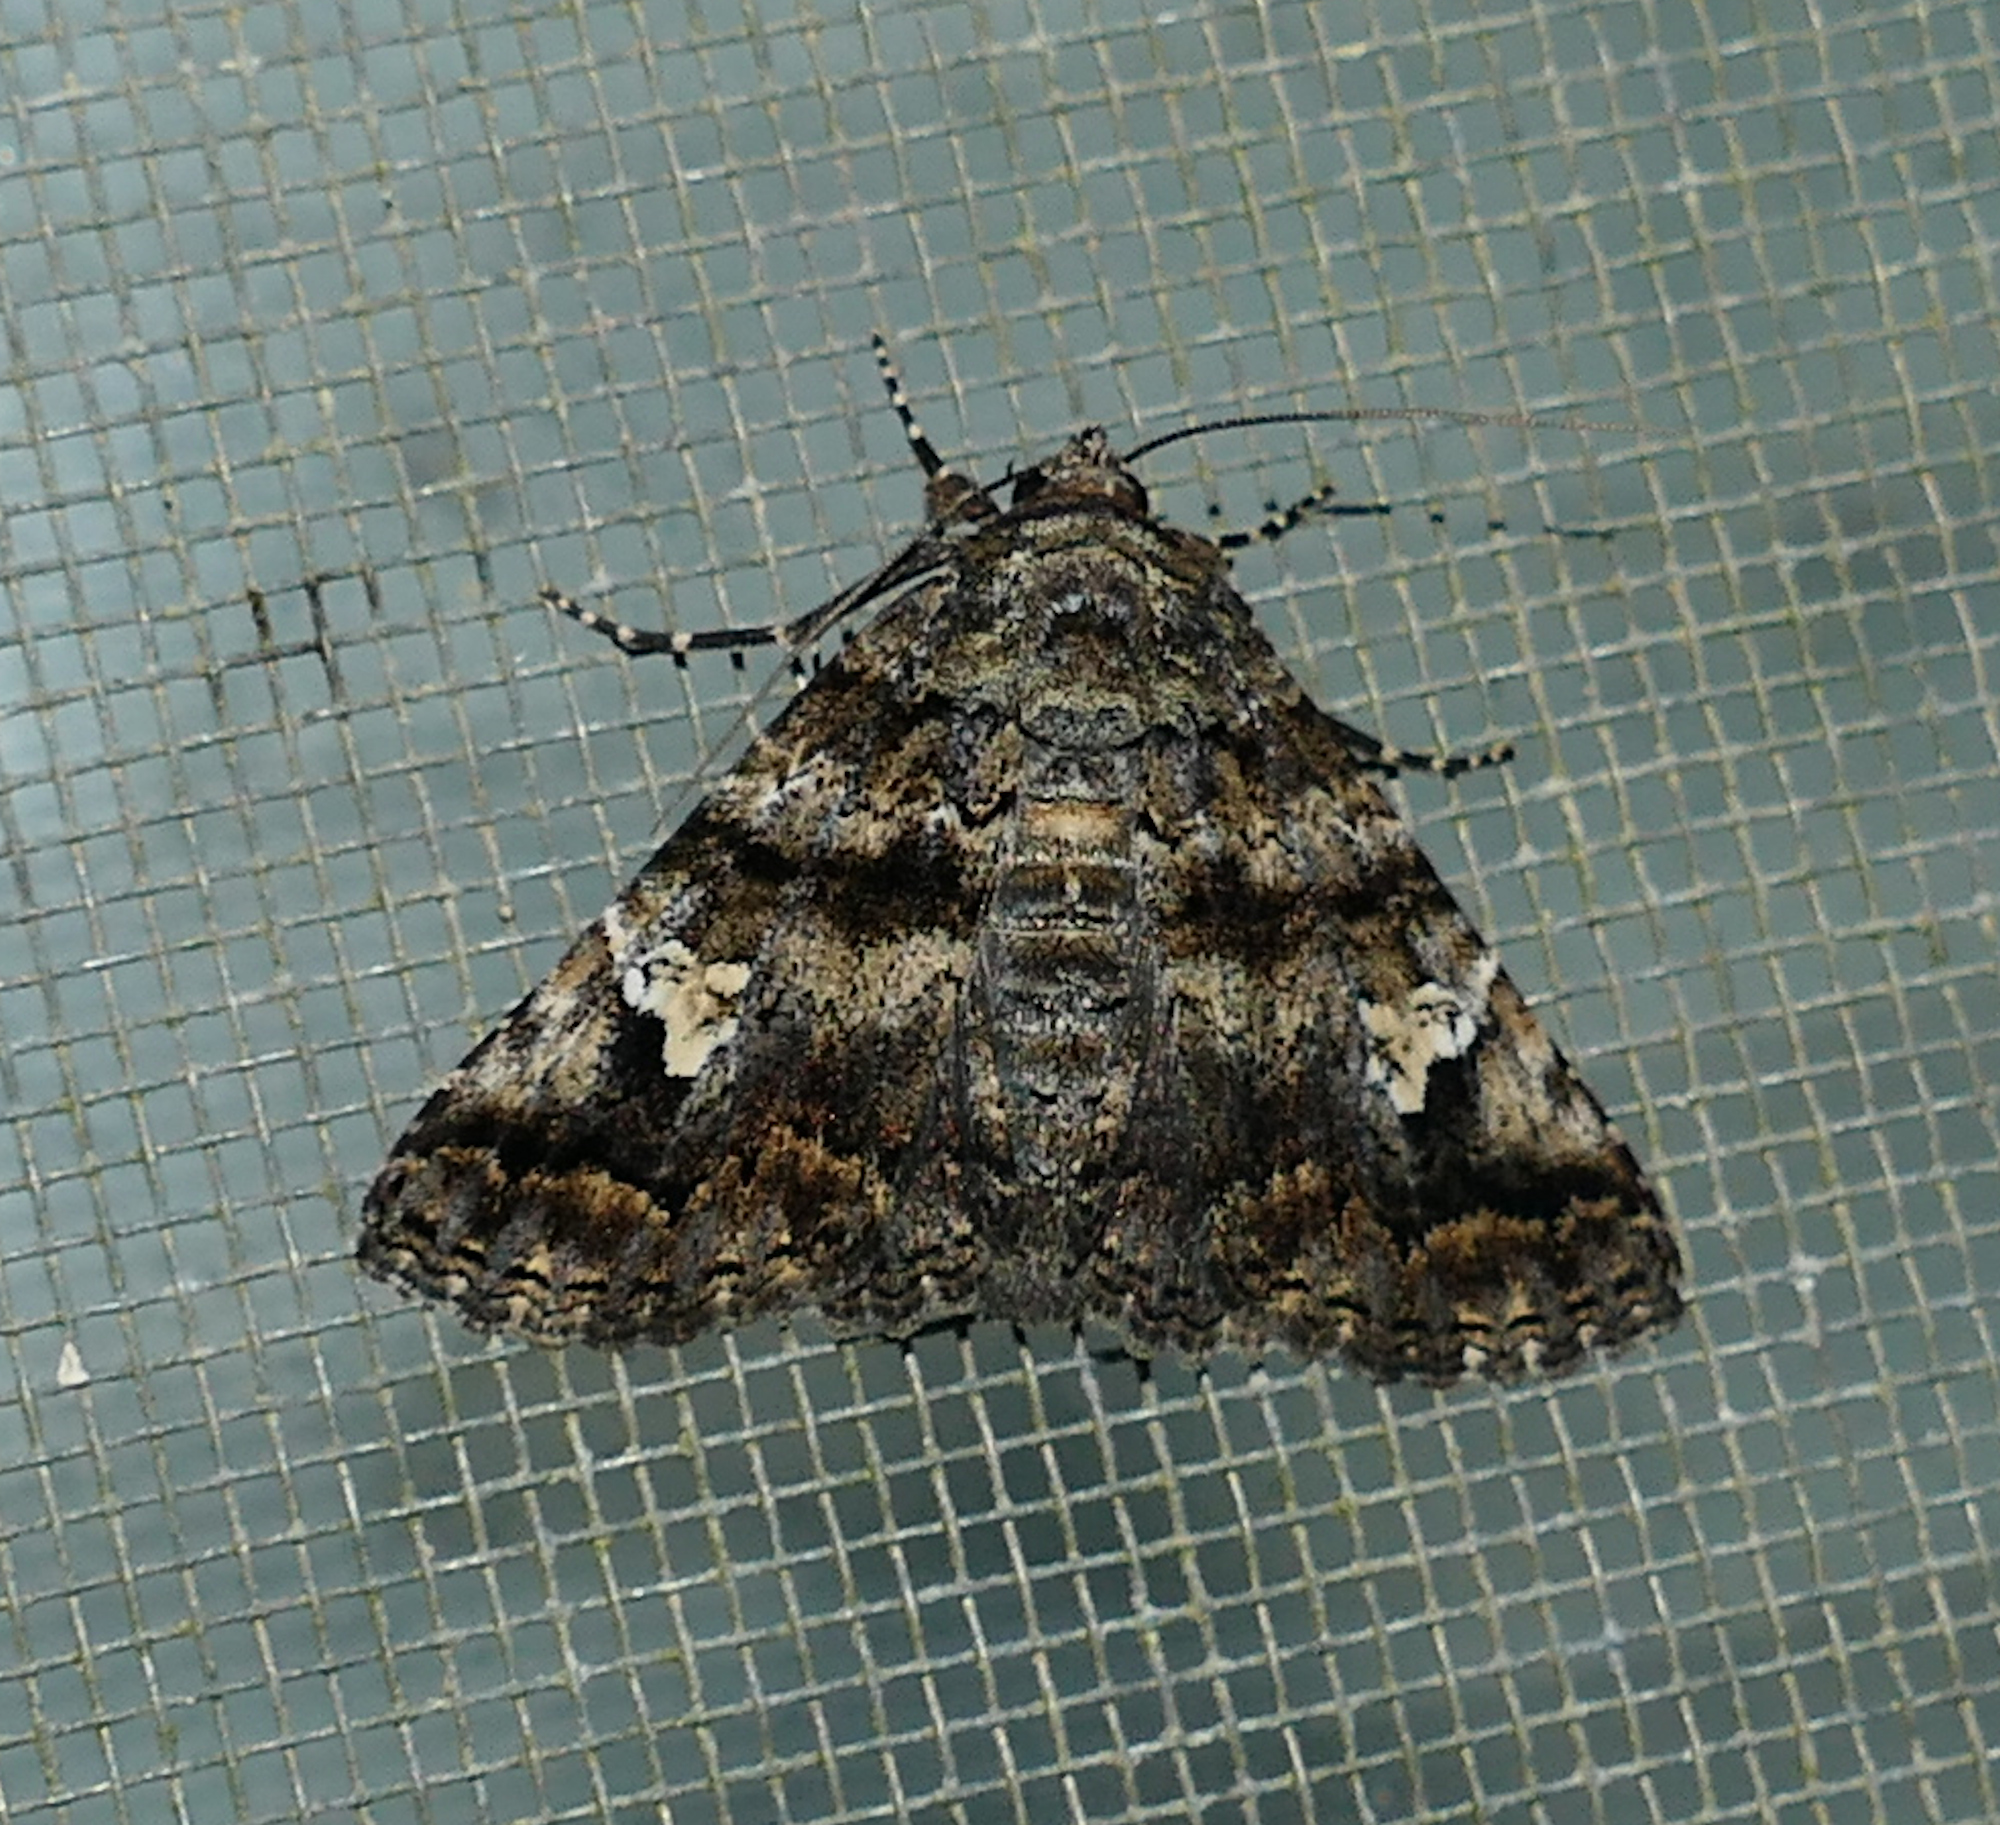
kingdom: Animalia
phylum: Arthropoda
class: Insecta
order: Lepidoptera
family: Erebidae
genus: Metria
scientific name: Metria amella
